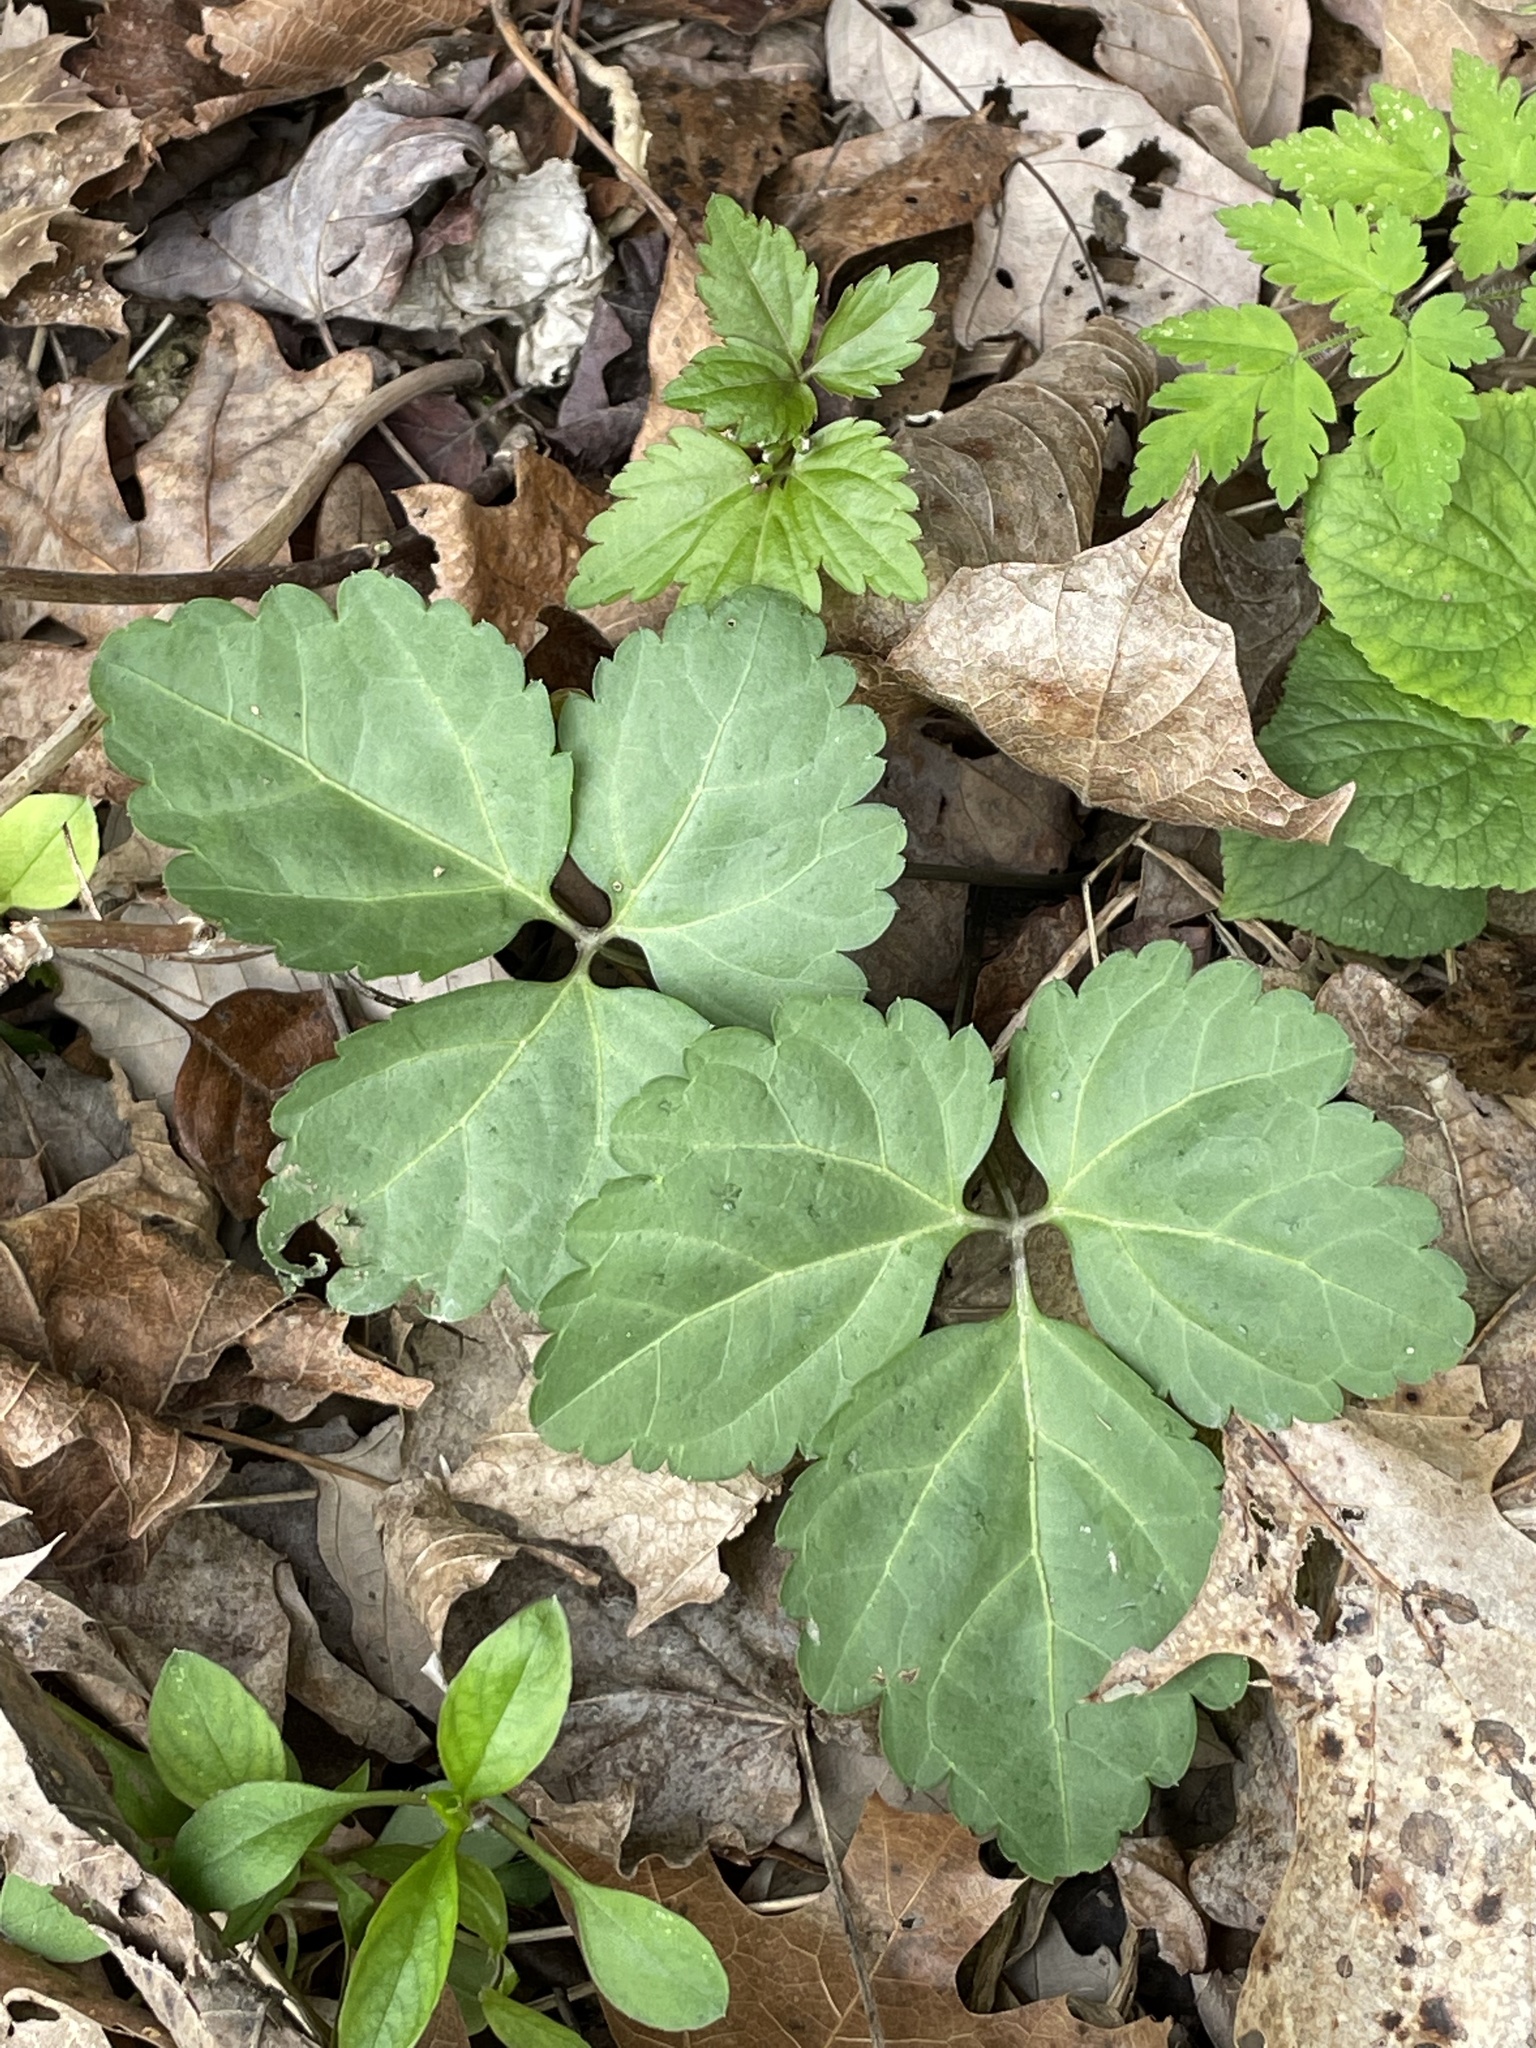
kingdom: Plantae
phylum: Tracheophyta
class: Magnoliopsida
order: Brassicales
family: Brassicaceae
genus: Cardamine
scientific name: Cardamine diphylla
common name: Broad-leaved toothwort
